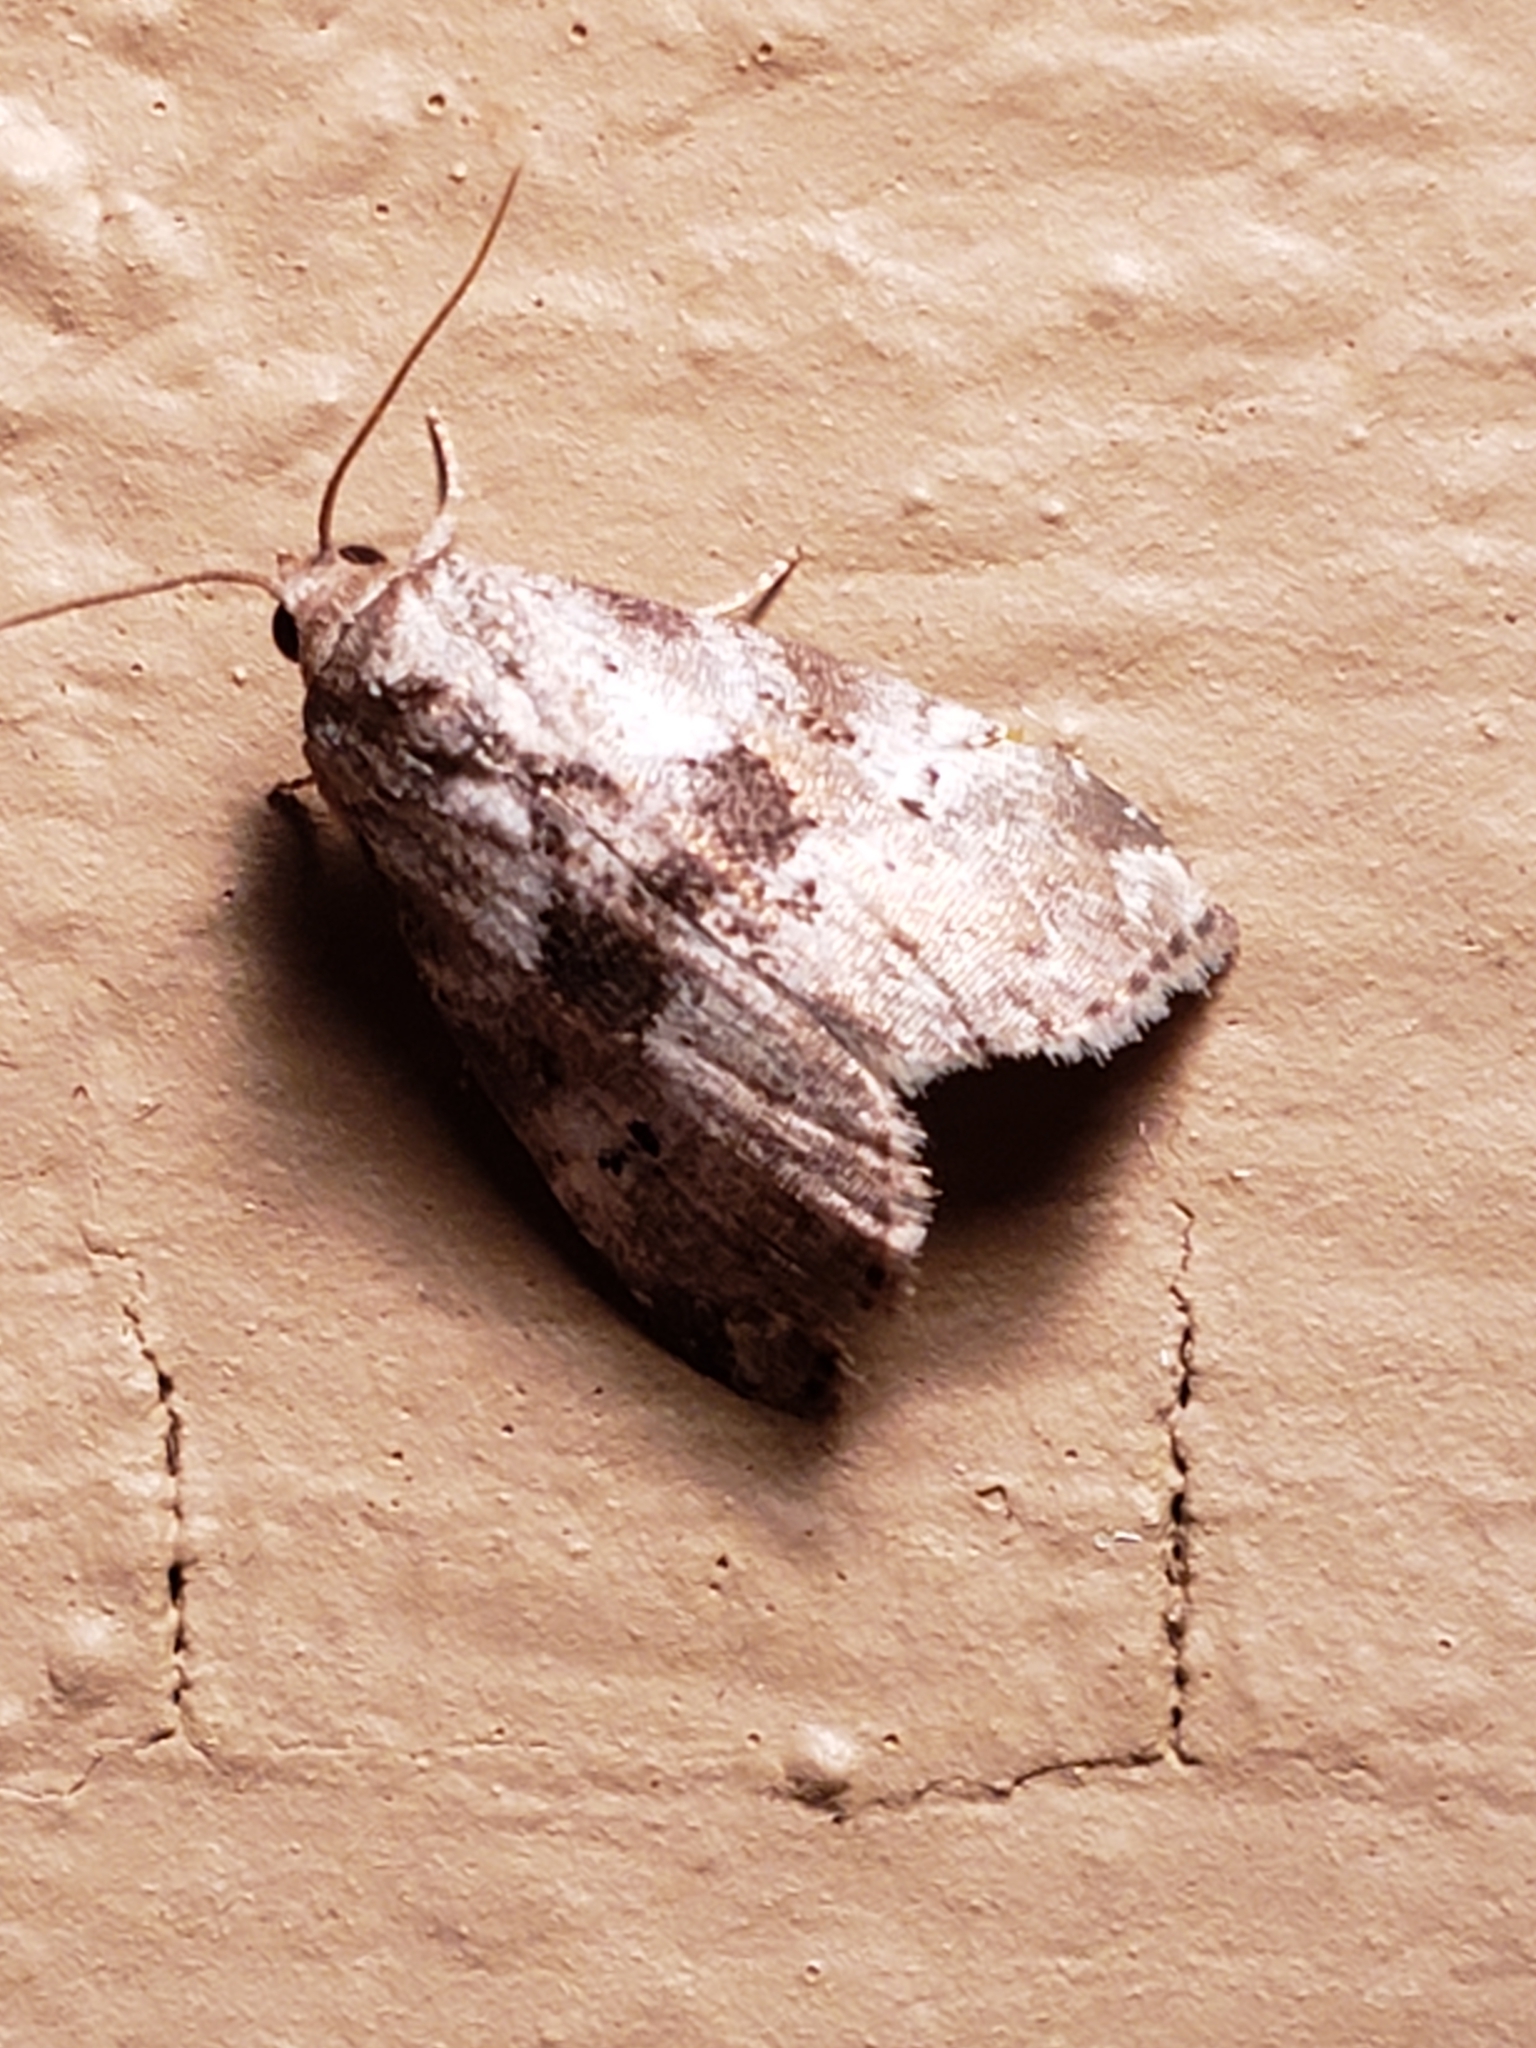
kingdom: Animalia
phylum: Arthropoda
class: Insecta
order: Lepidoptera
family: Erebidae
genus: Hyperstrotia
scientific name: Hyperstrotia secta
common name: Black-patched graylet
